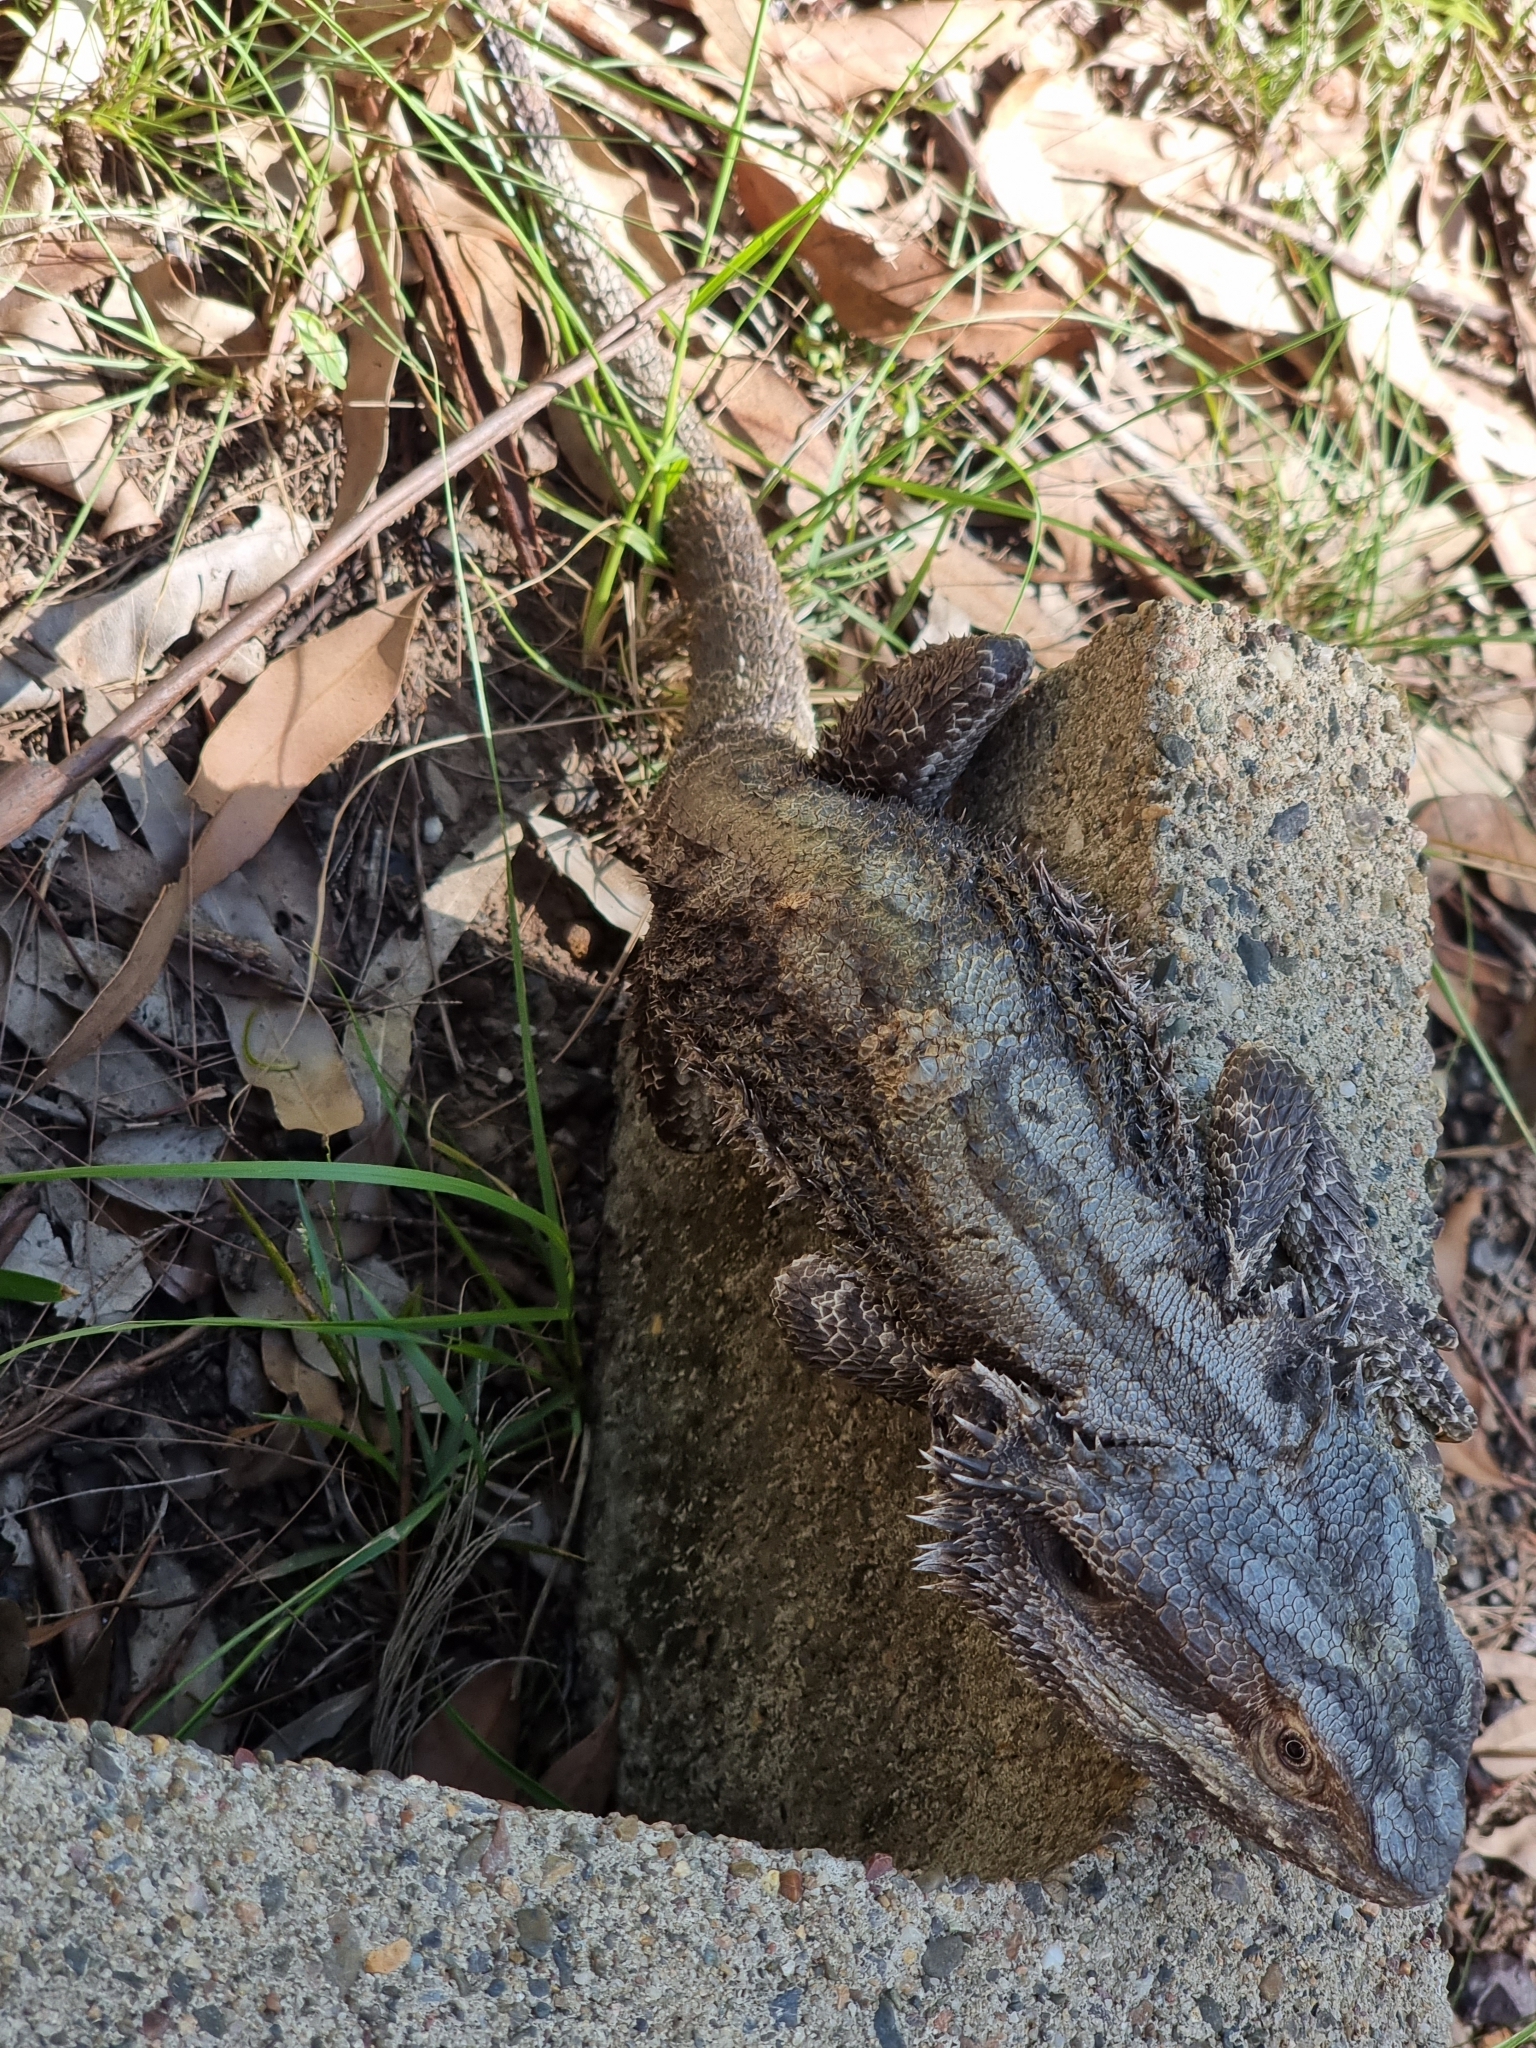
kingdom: Animalia
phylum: Chordata
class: Squamata
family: Agamidae
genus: Pogona
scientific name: Pogona barbata
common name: Bearded dragon
